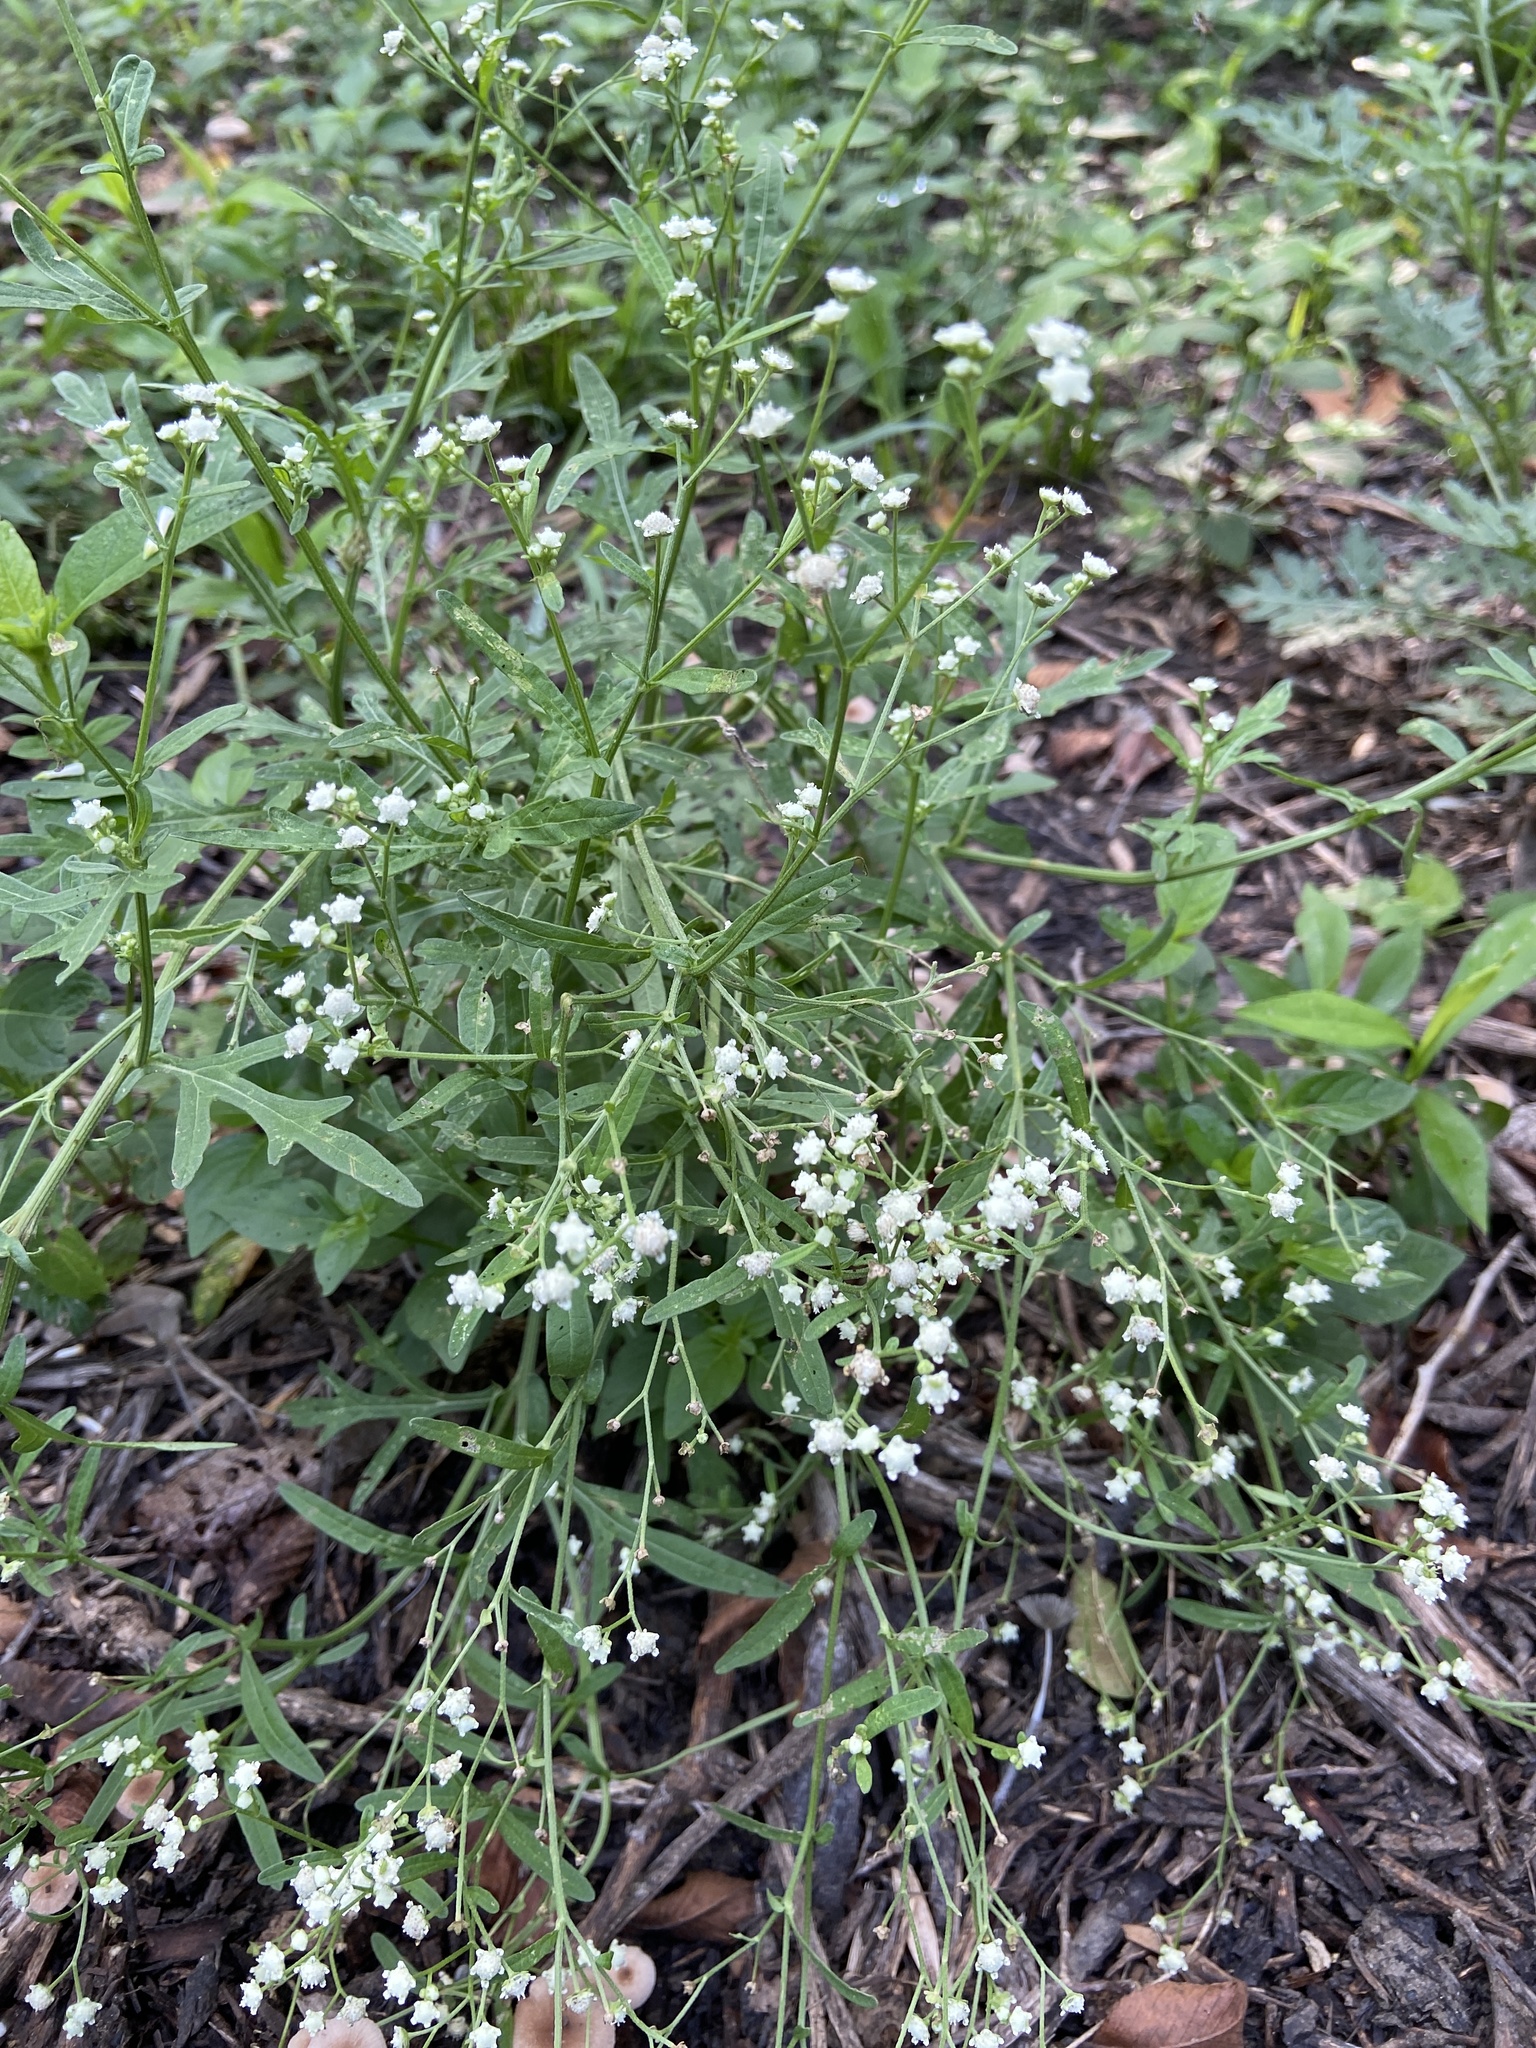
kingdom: Plantae
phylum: Tracheophyta
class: Magnoliopsida
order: Asterales
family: Asteraceae
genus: Parthenium
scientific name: Parthenium hysterophorus
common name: Santa maria feverfew
